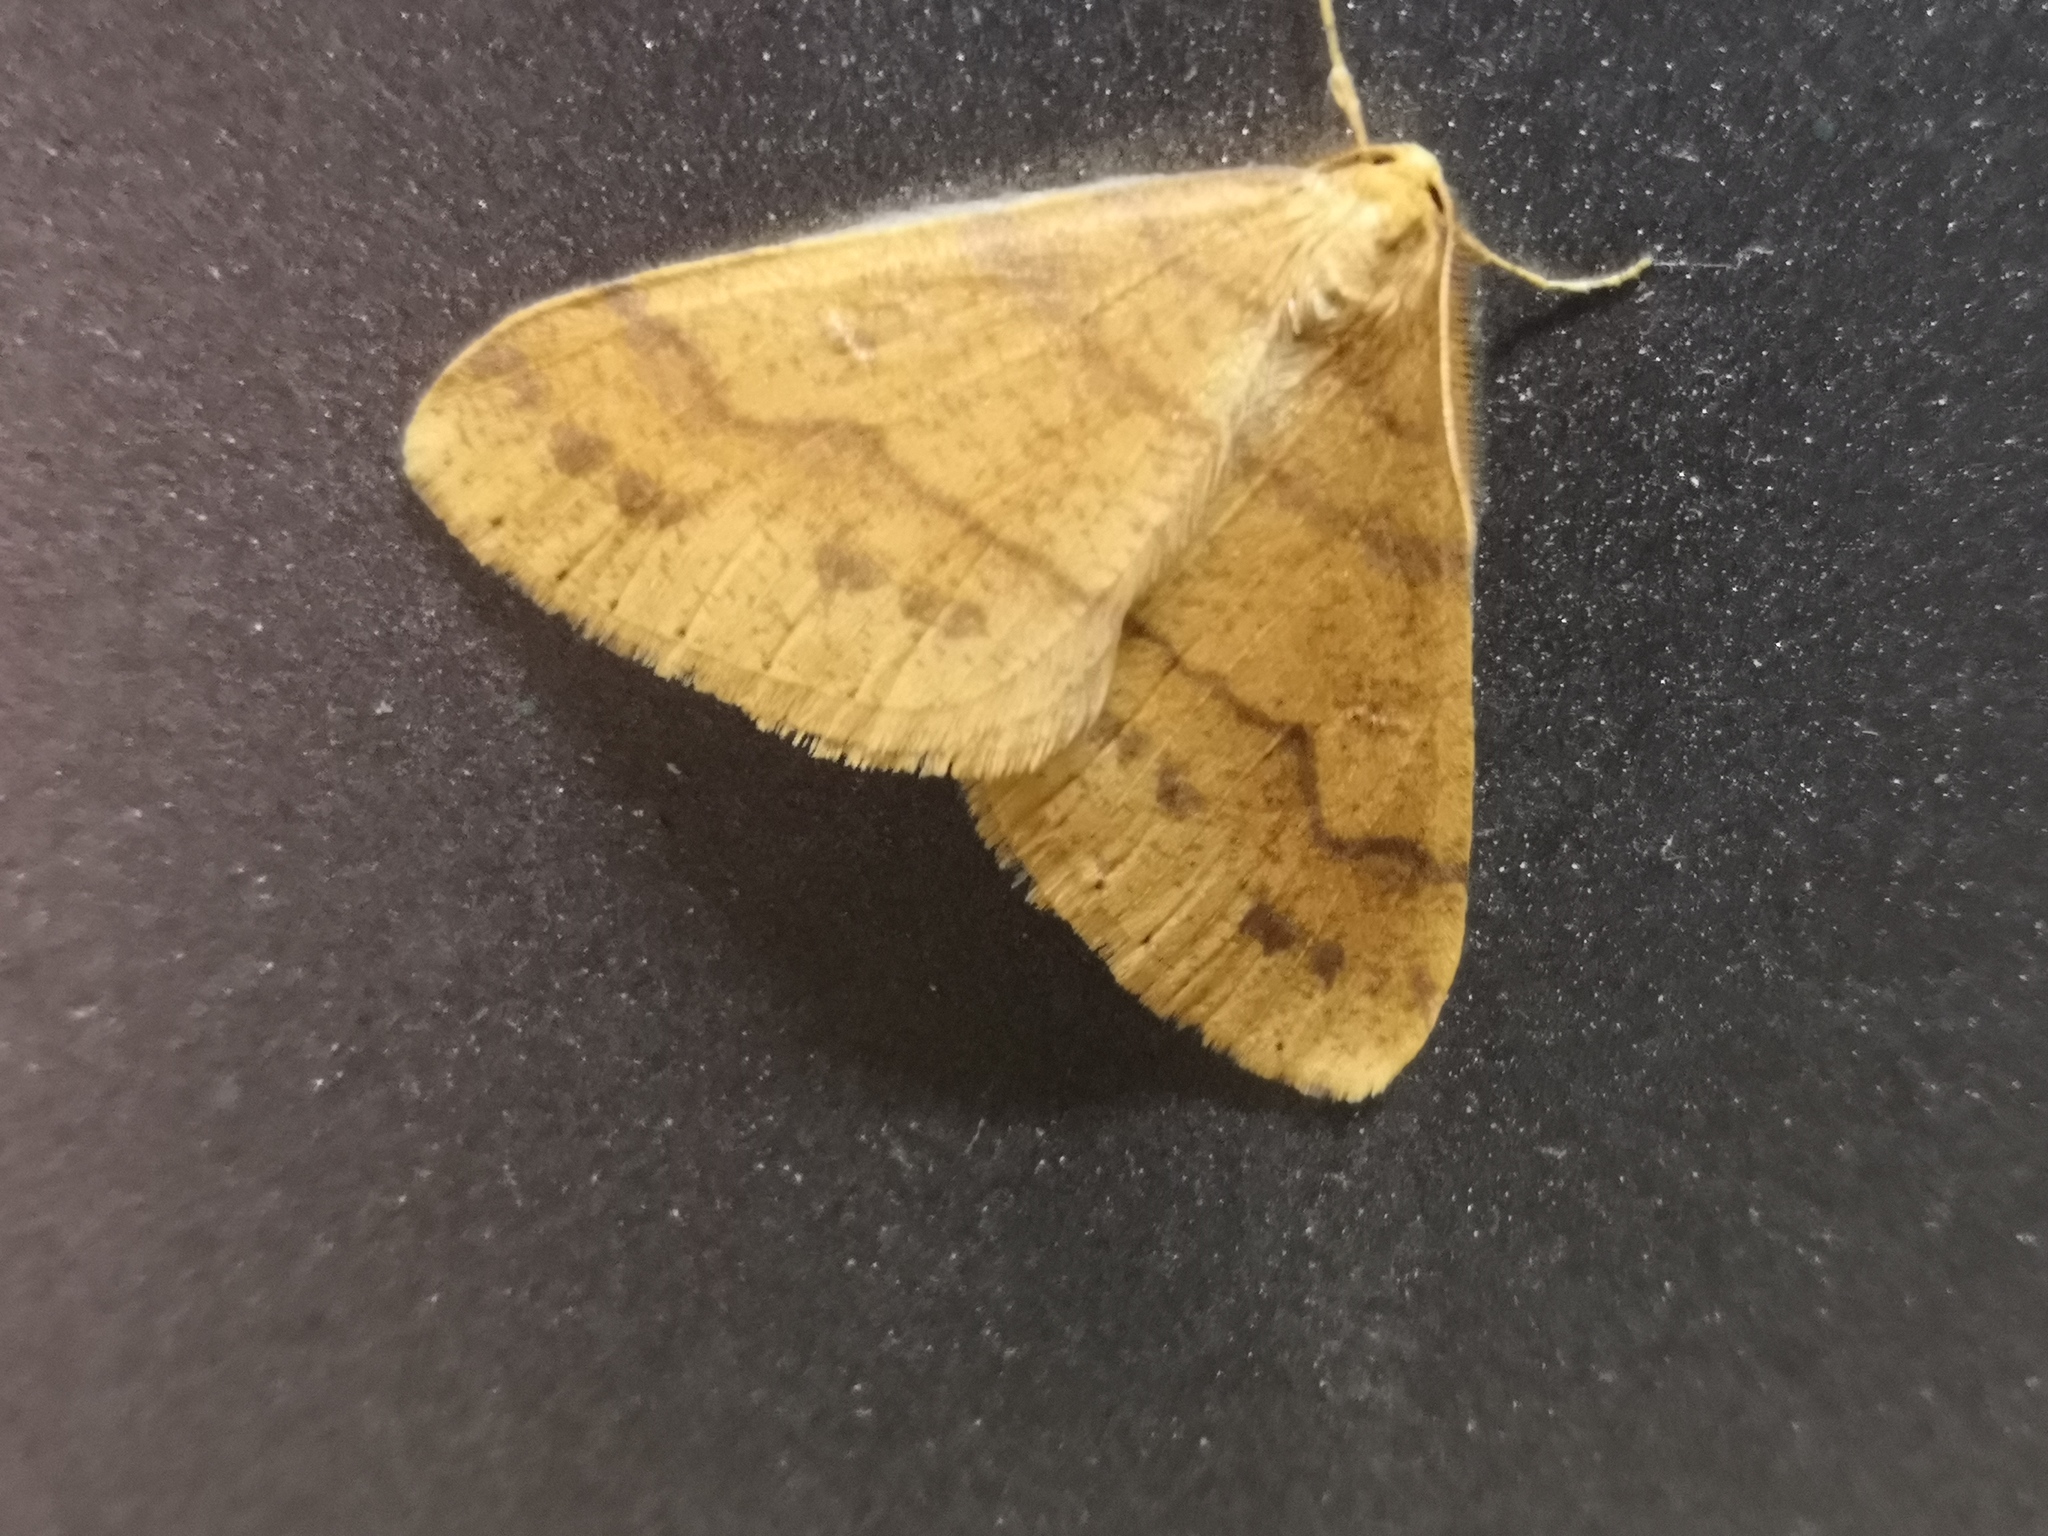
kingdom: Animalia
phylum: Arthropoda
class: Insecta
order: Lepidoptera
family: Geometridae
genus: Agriopis
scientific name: Agriopis aurantiaria
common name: Scarce umber
